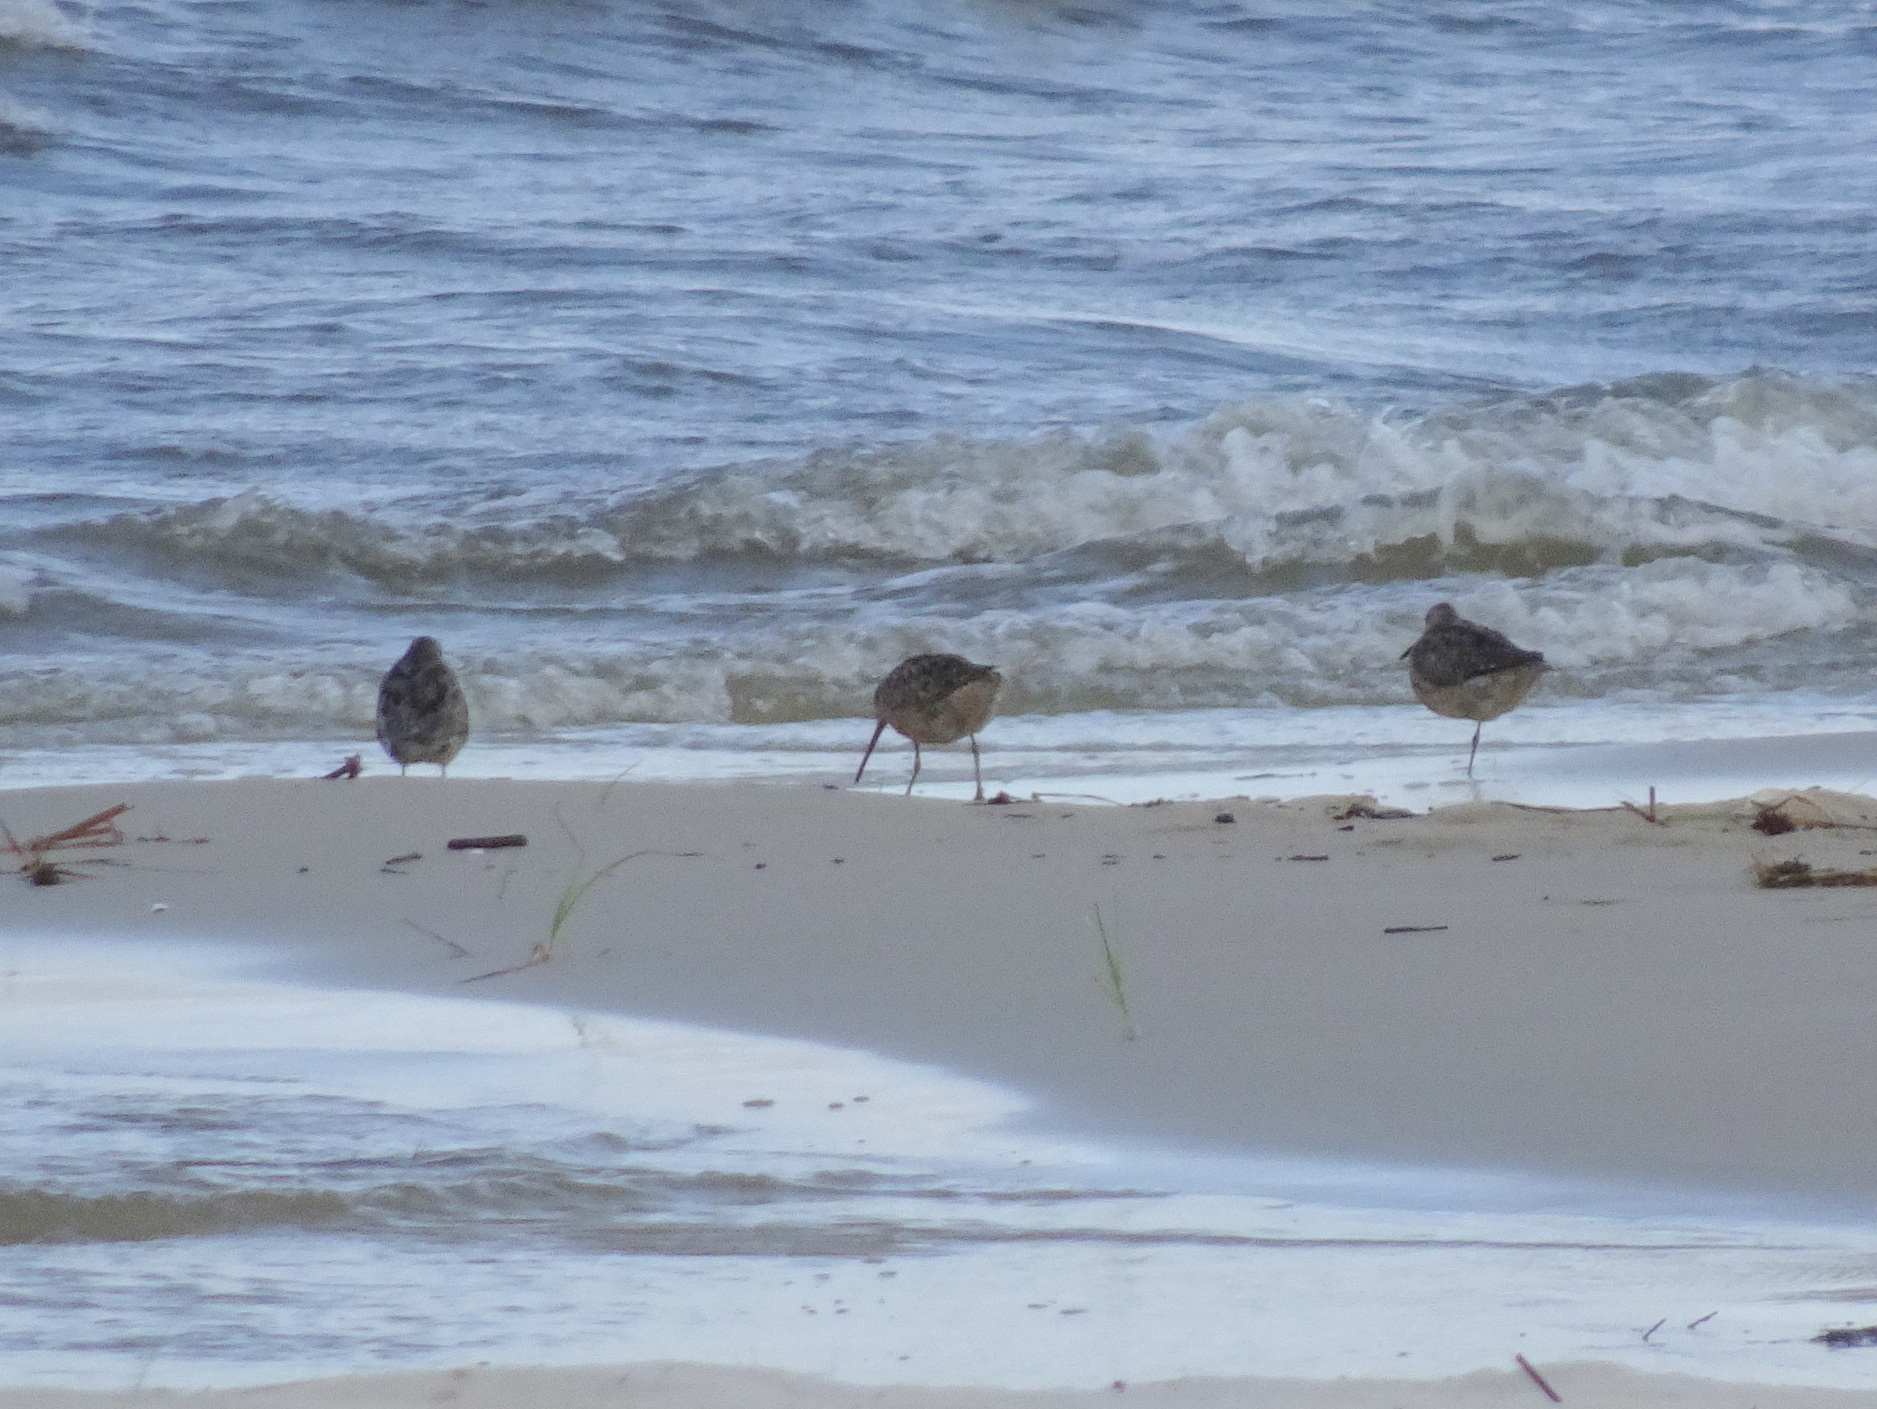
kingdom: Animalia
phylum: Chordata
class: Aves
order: Charadriiformes
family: Scolopacidae
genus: Limnodromus
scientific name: Limnodromus griseus
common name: Short-billed dowitcher
